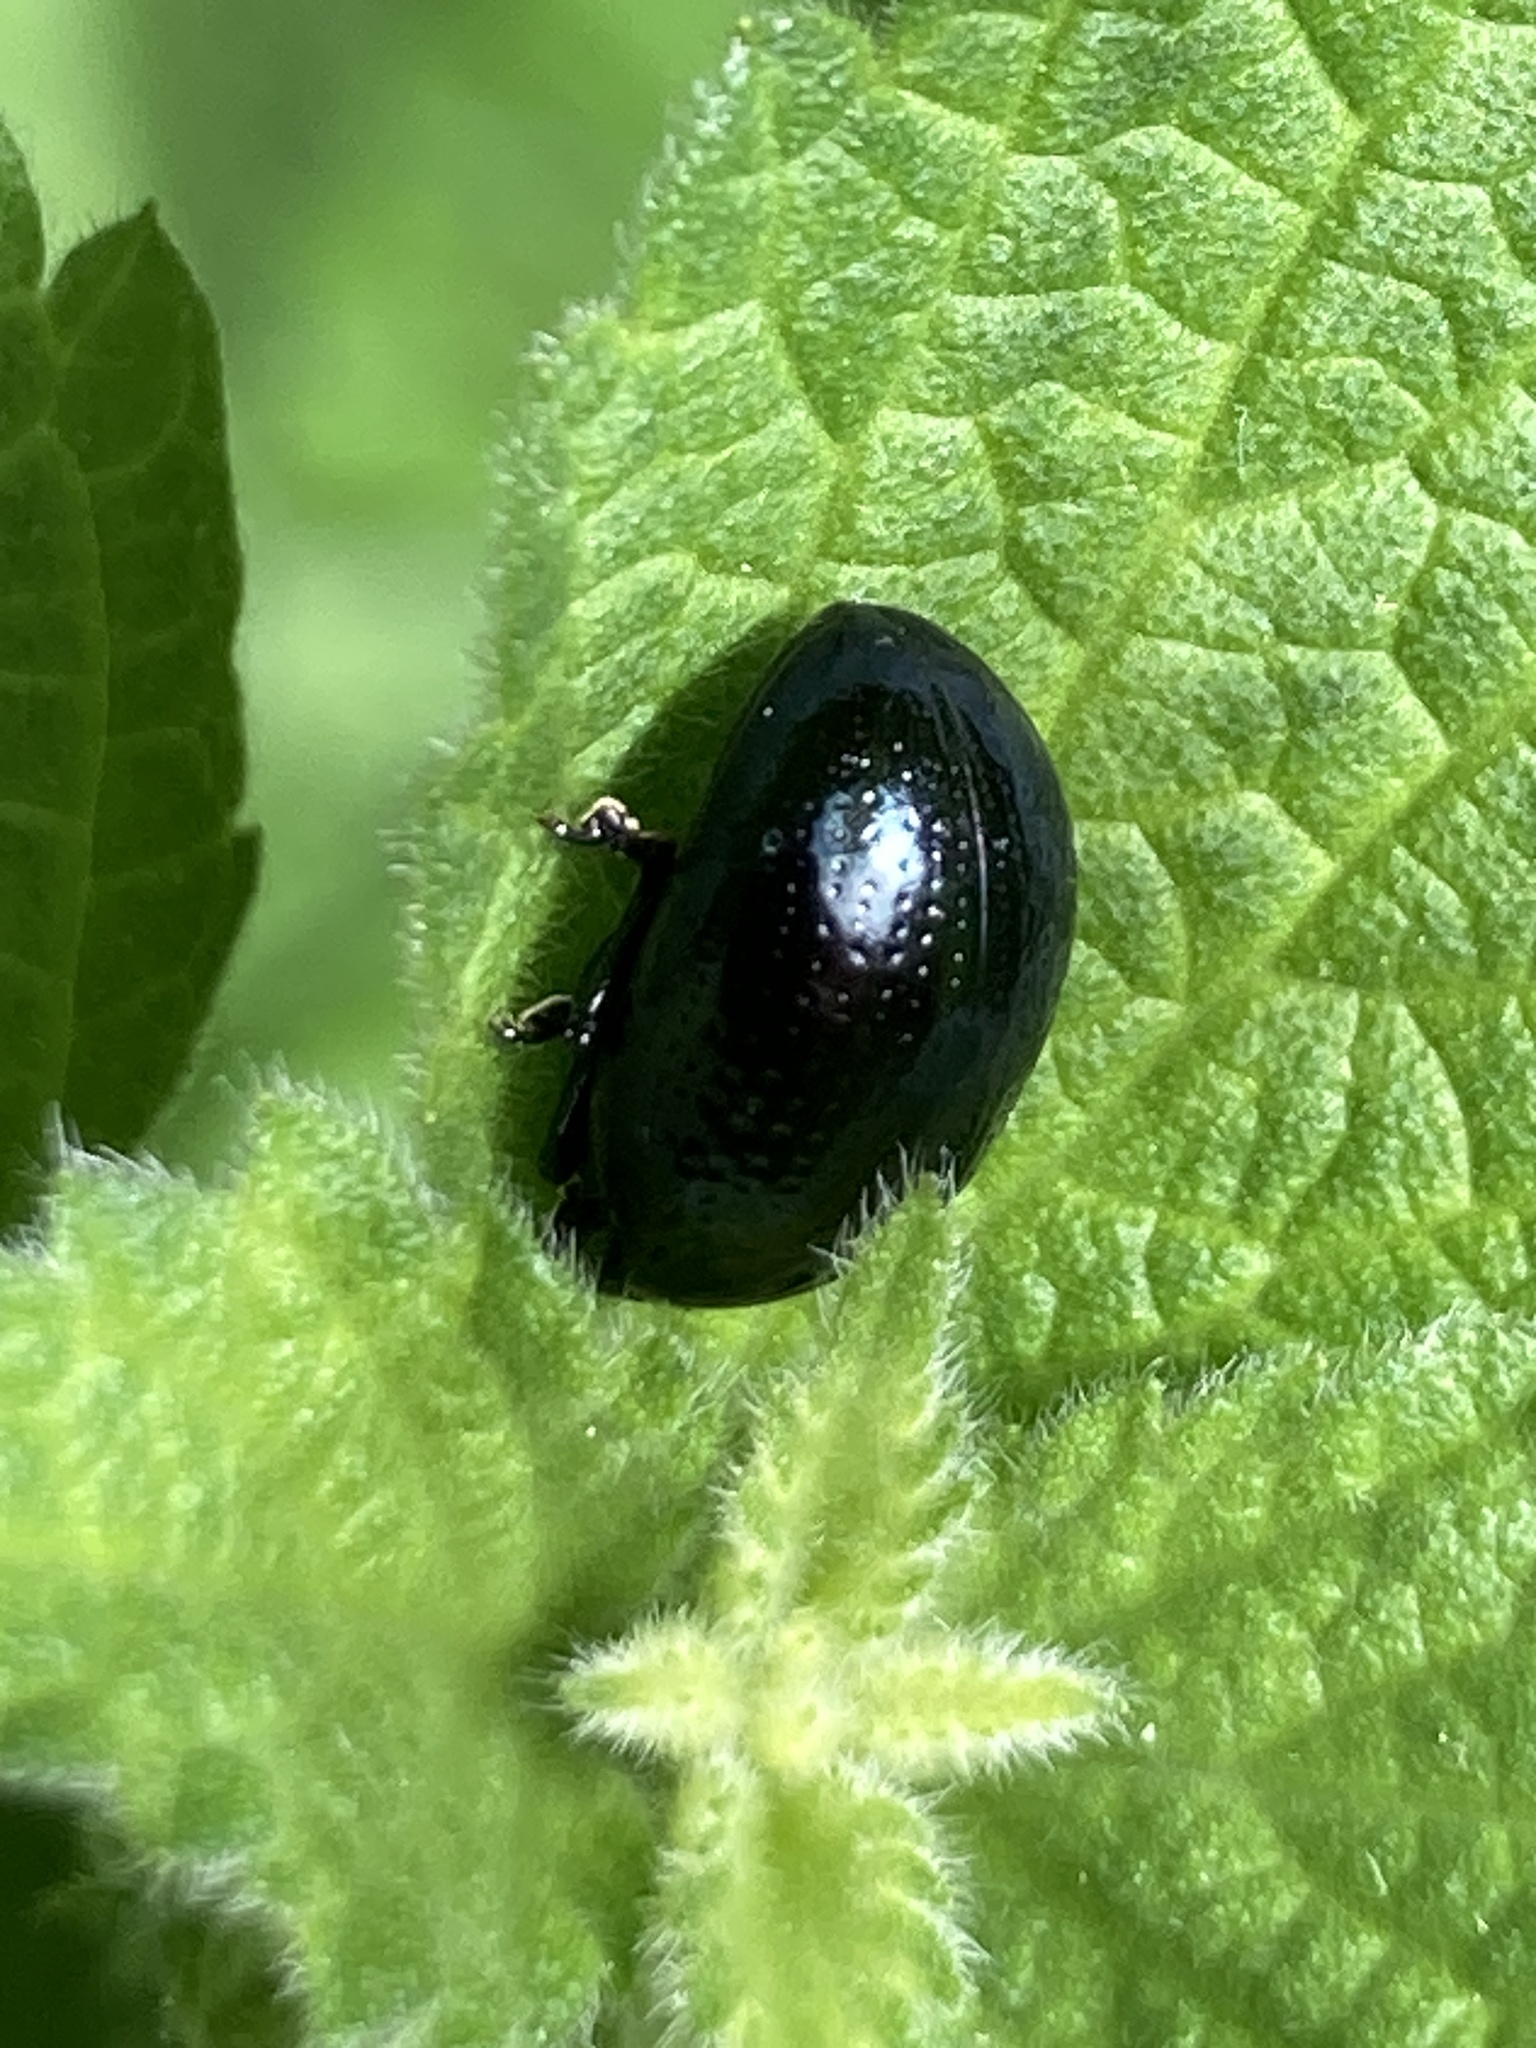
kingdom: Animalia
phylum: Arthropoda
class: Insecta
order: Coleoptera
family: Chrysomelidae
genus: Chrysolina
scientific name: Chrysolina oricalcia
